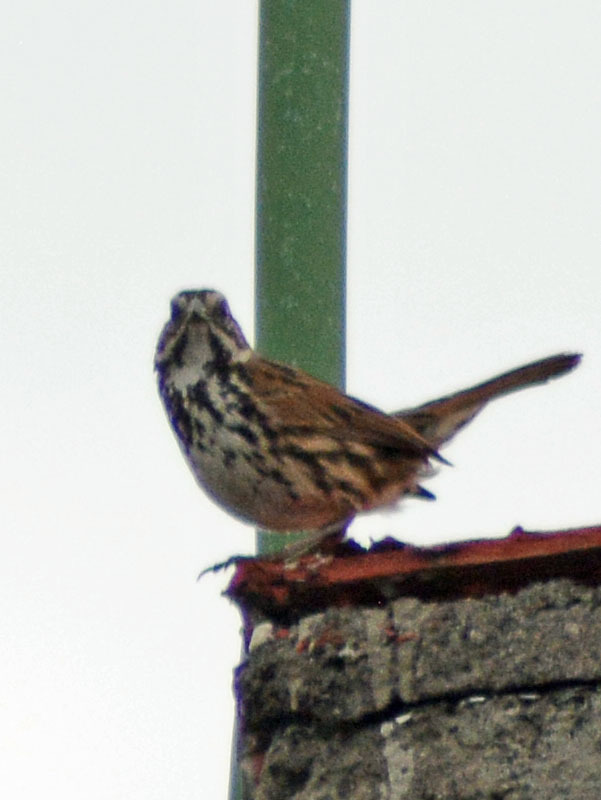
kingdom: Animalia
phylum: Chordata
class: Aves
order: Passeriformes
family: Passerellidae
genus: Melospiza
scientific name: Melospiza melodia
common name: Song sparrow
